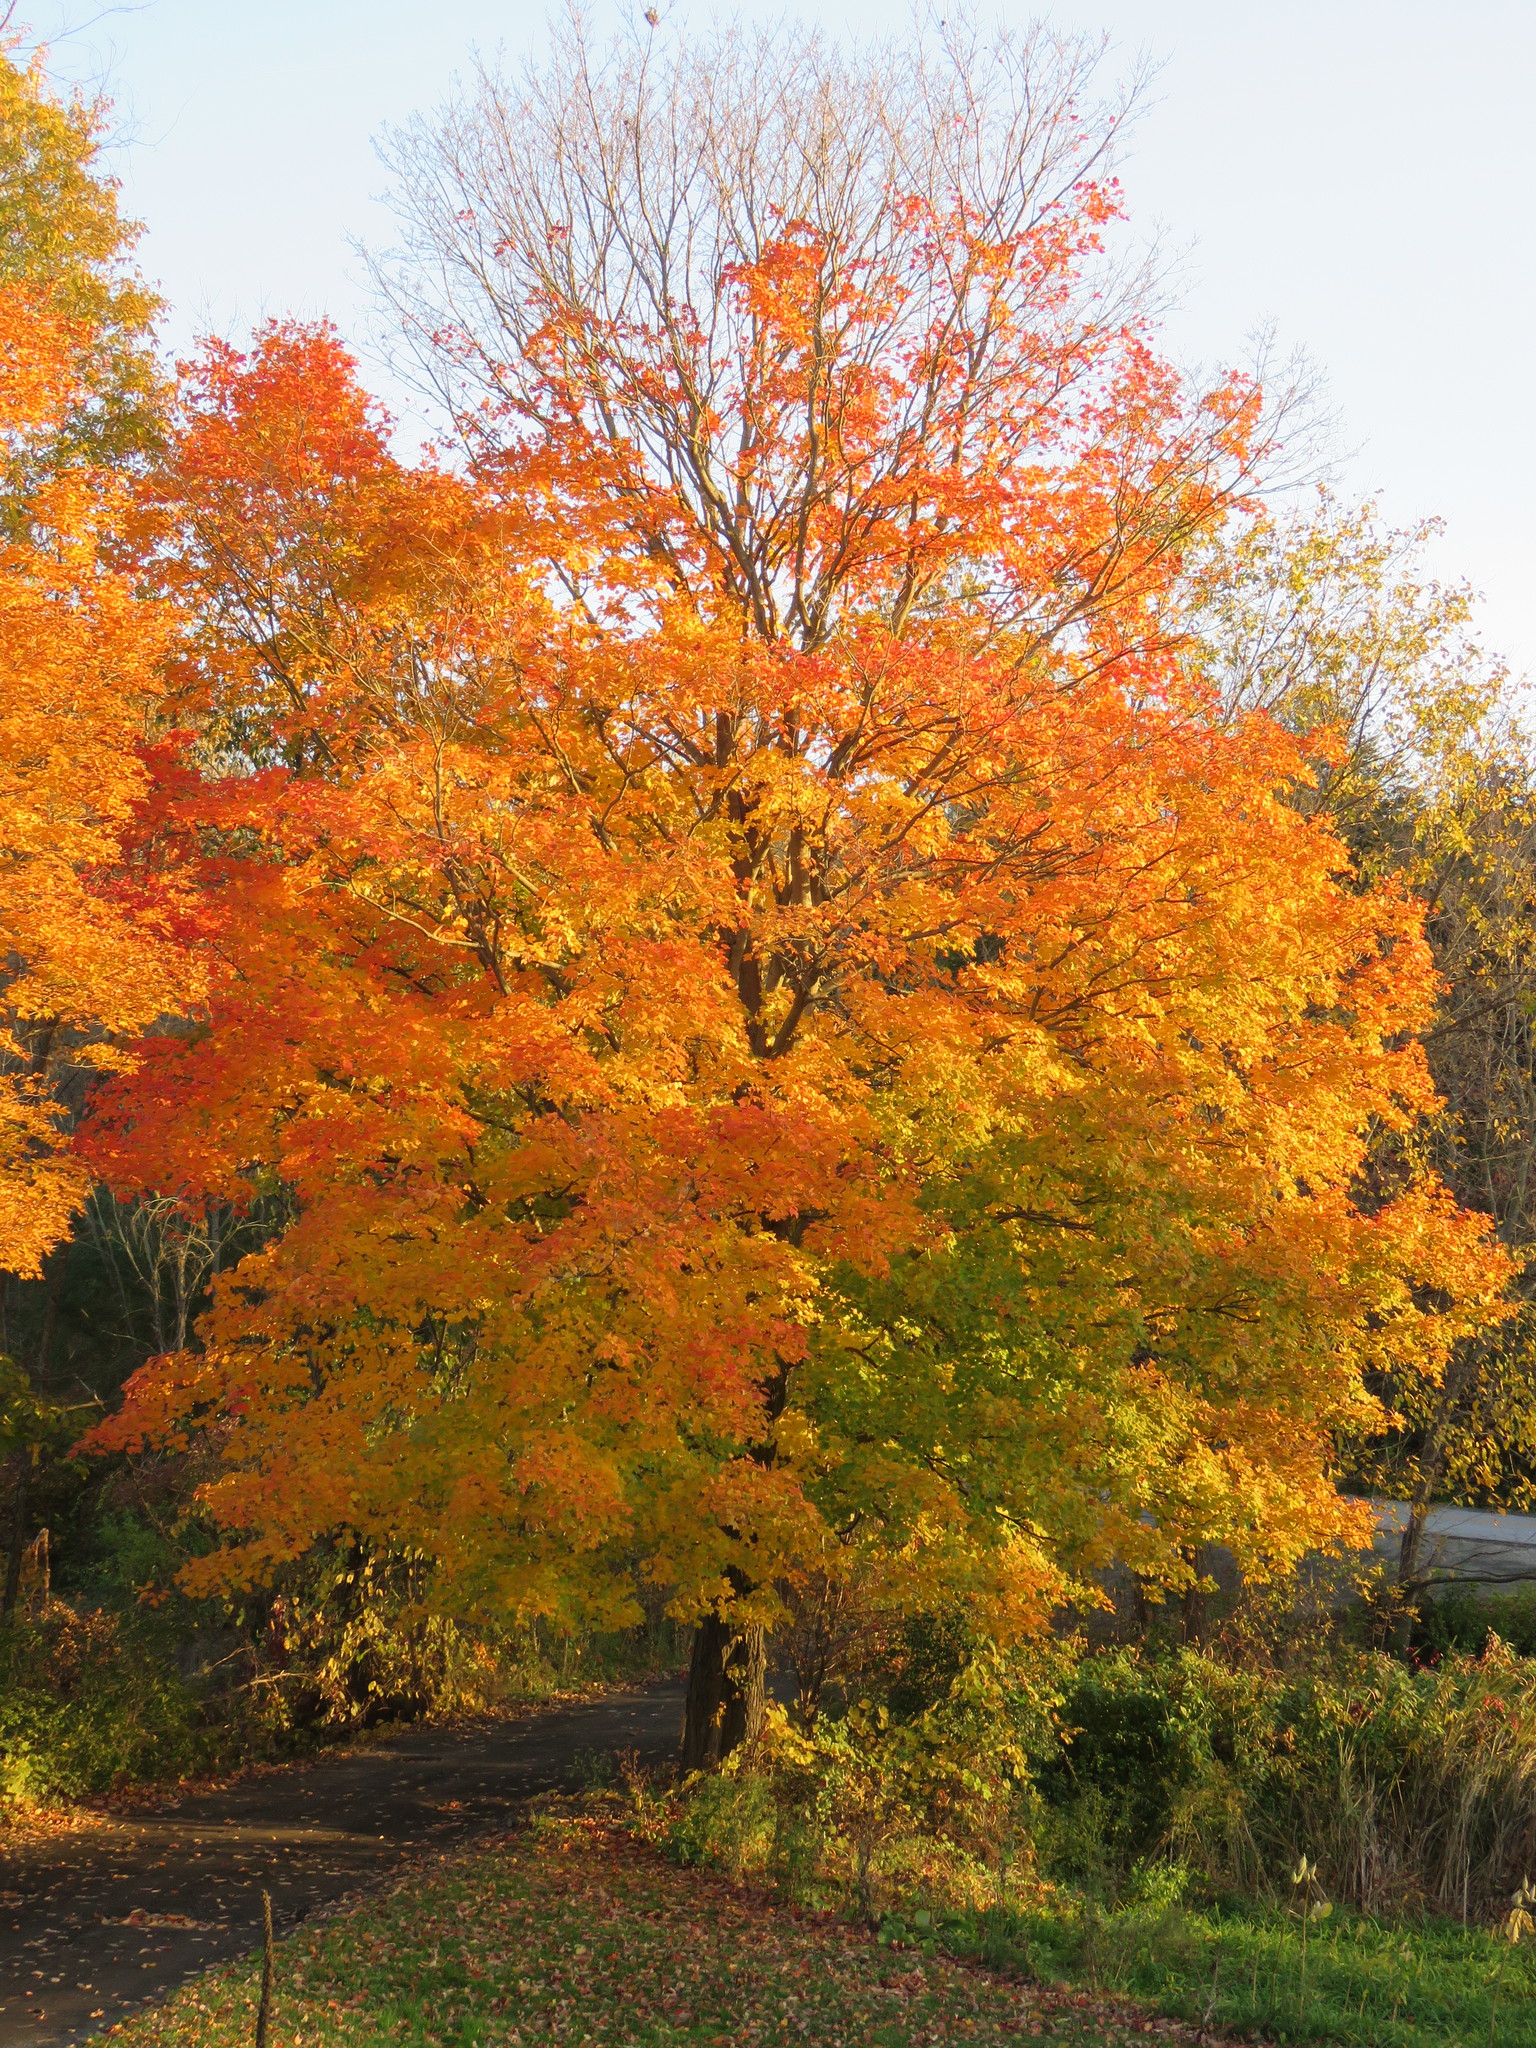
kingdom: Plantae
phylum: Tracheophyta
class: Magnoliopsida
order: Sapindales
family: Sapindaceae
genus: Acer
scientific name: Acer saccharum
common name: Sugar maple
